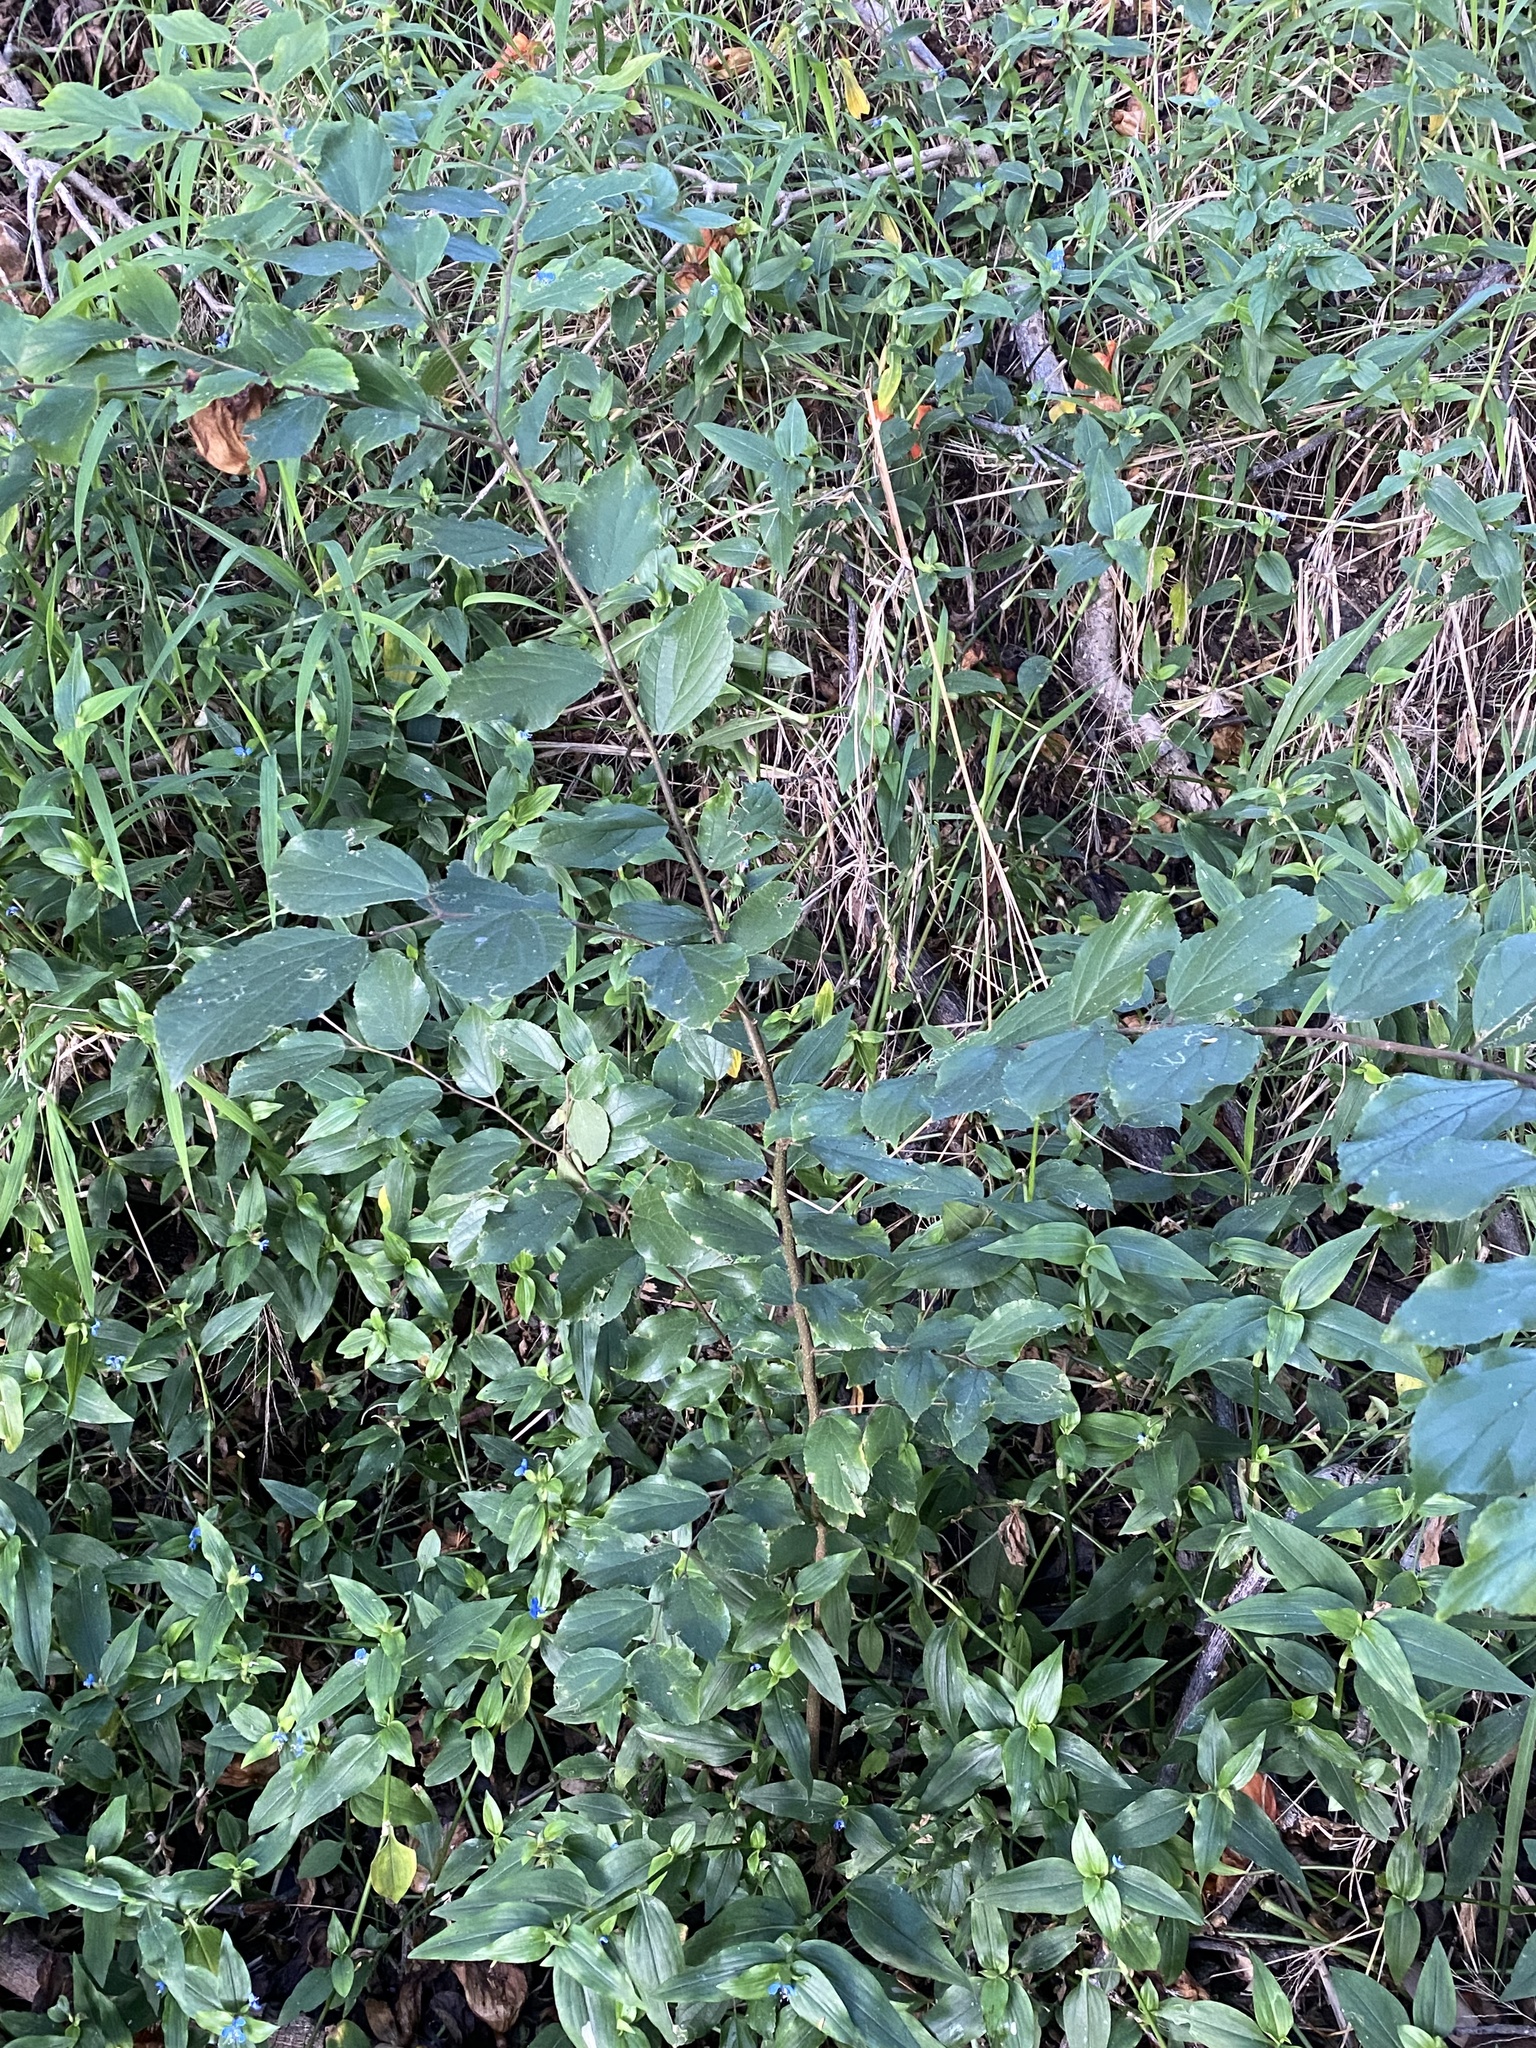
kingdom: Plantae
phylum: Tracheophyta
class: Magnoliopsida
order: Rosales
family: Cannabaceae
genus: Celtis
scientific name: Celtis sinensis
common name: Chinese hackberry
